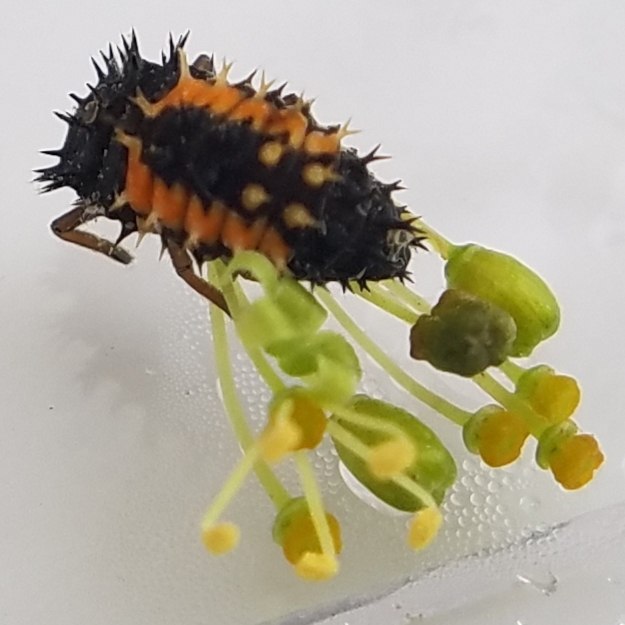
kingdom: Animalia
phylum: Arthropoda
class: Insecta
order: Coleoptera
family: Coccinellidae
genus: Harmonia
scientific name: Harmonia axyridis
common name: Harlequin ladybird
